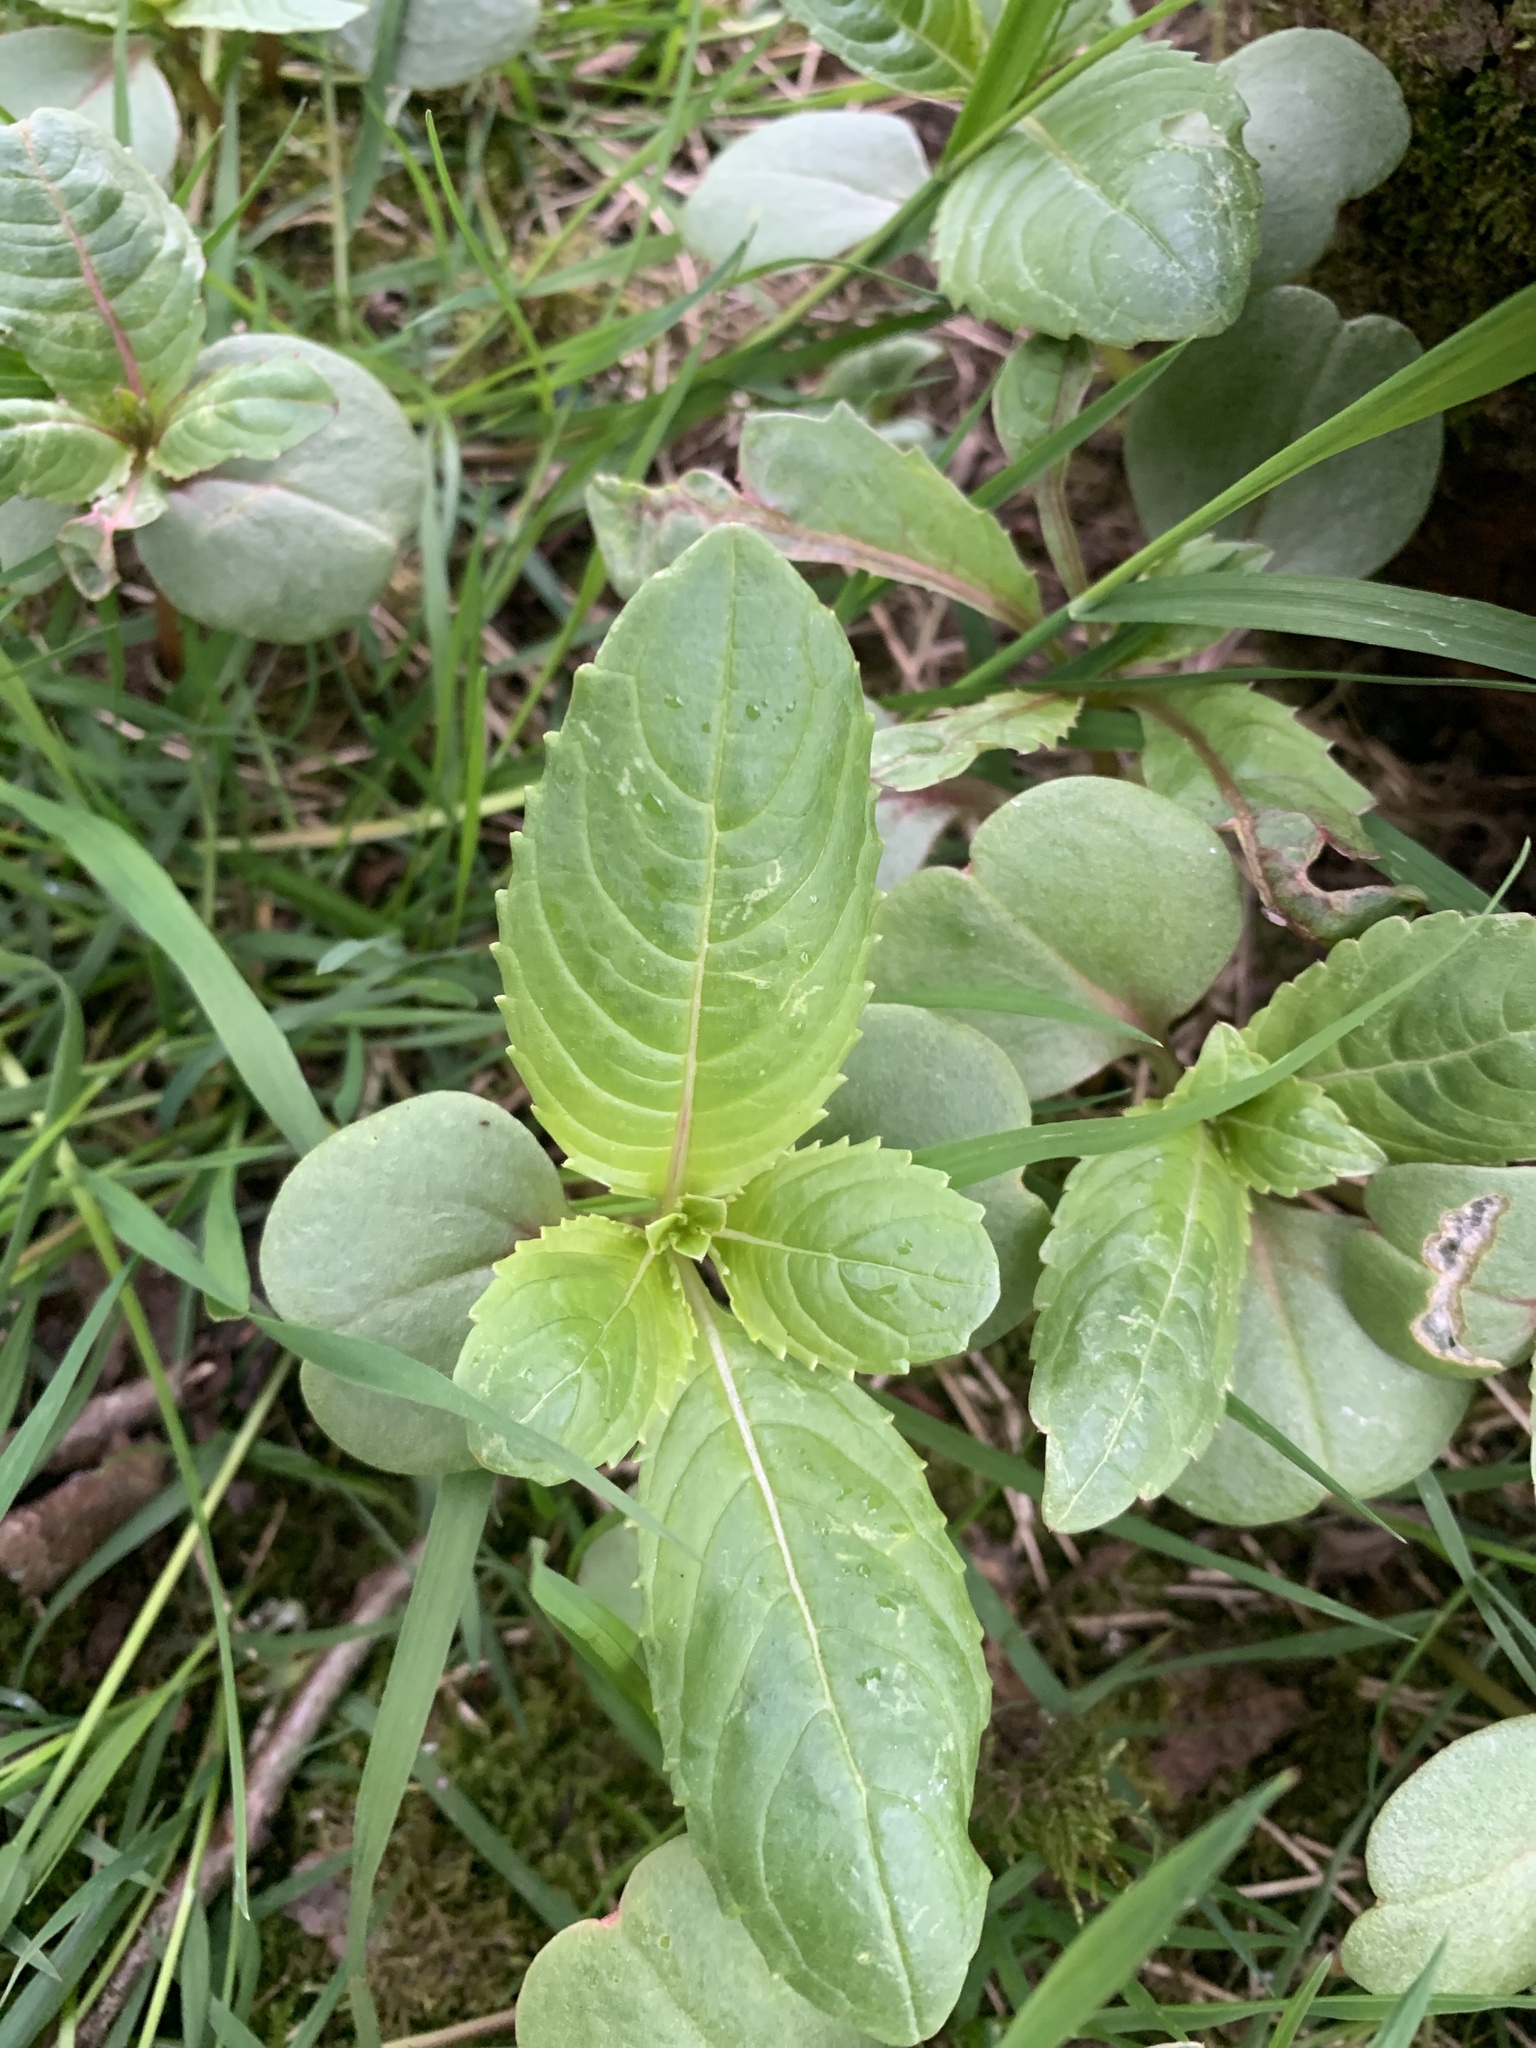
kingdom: Plantae
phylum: Tracheophyta
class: Magnoliopsida
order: Ericales
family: Balsaminaceae
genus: Impatiens
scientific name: Impatiens glandulifera
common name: Himalayan balsam
